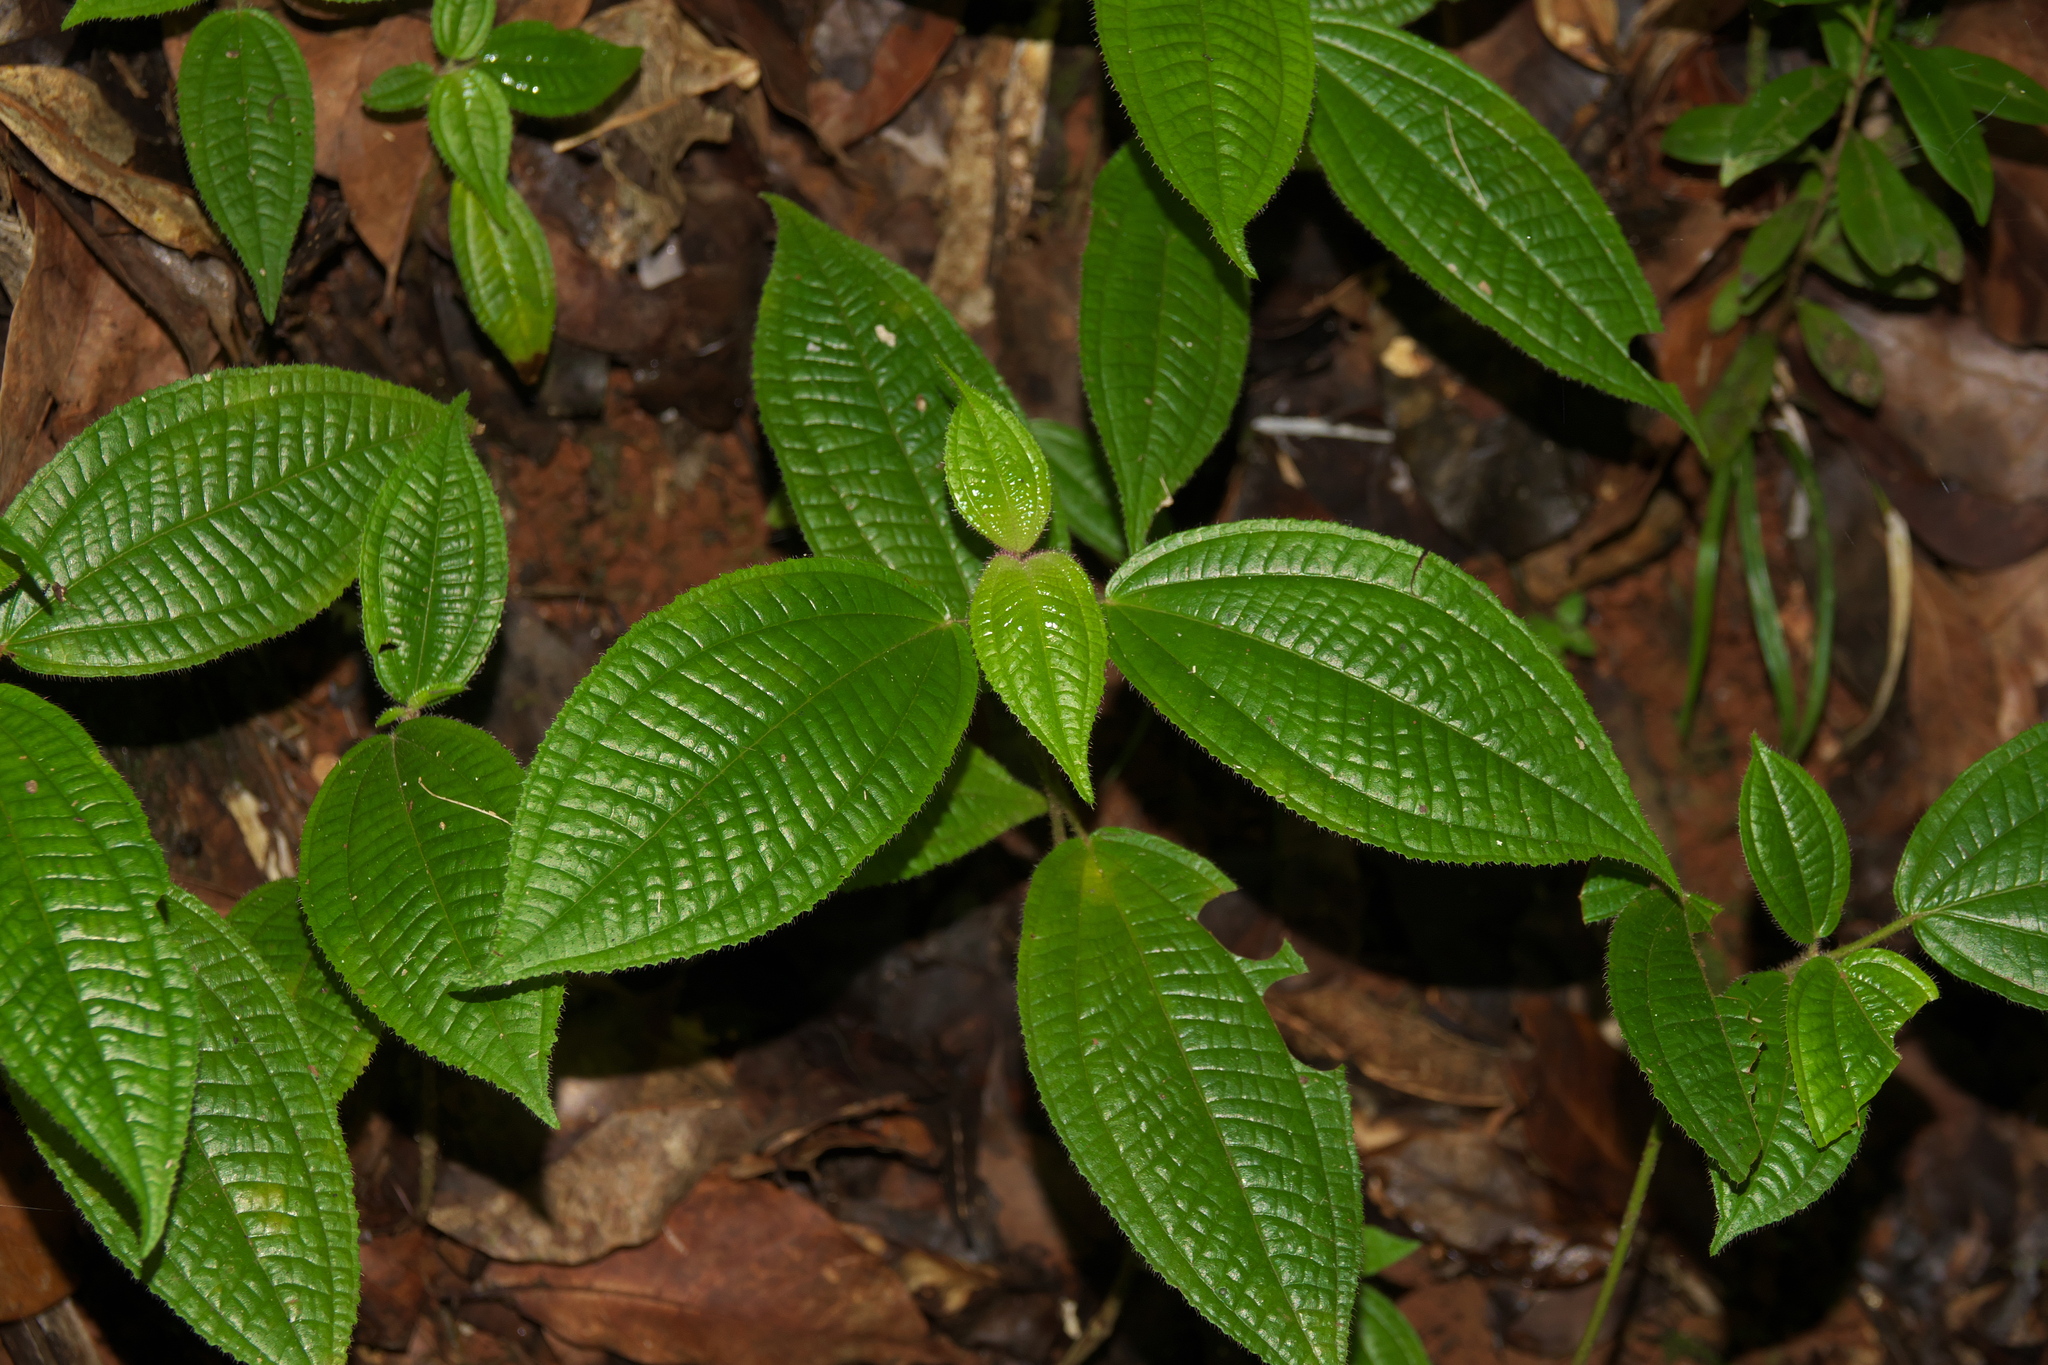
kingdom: Plantae
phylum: Tracheophyta
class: Magnoliopsida
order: Myrtales
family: Melastomataceae
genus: Miconia
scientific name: Miconia crenata
